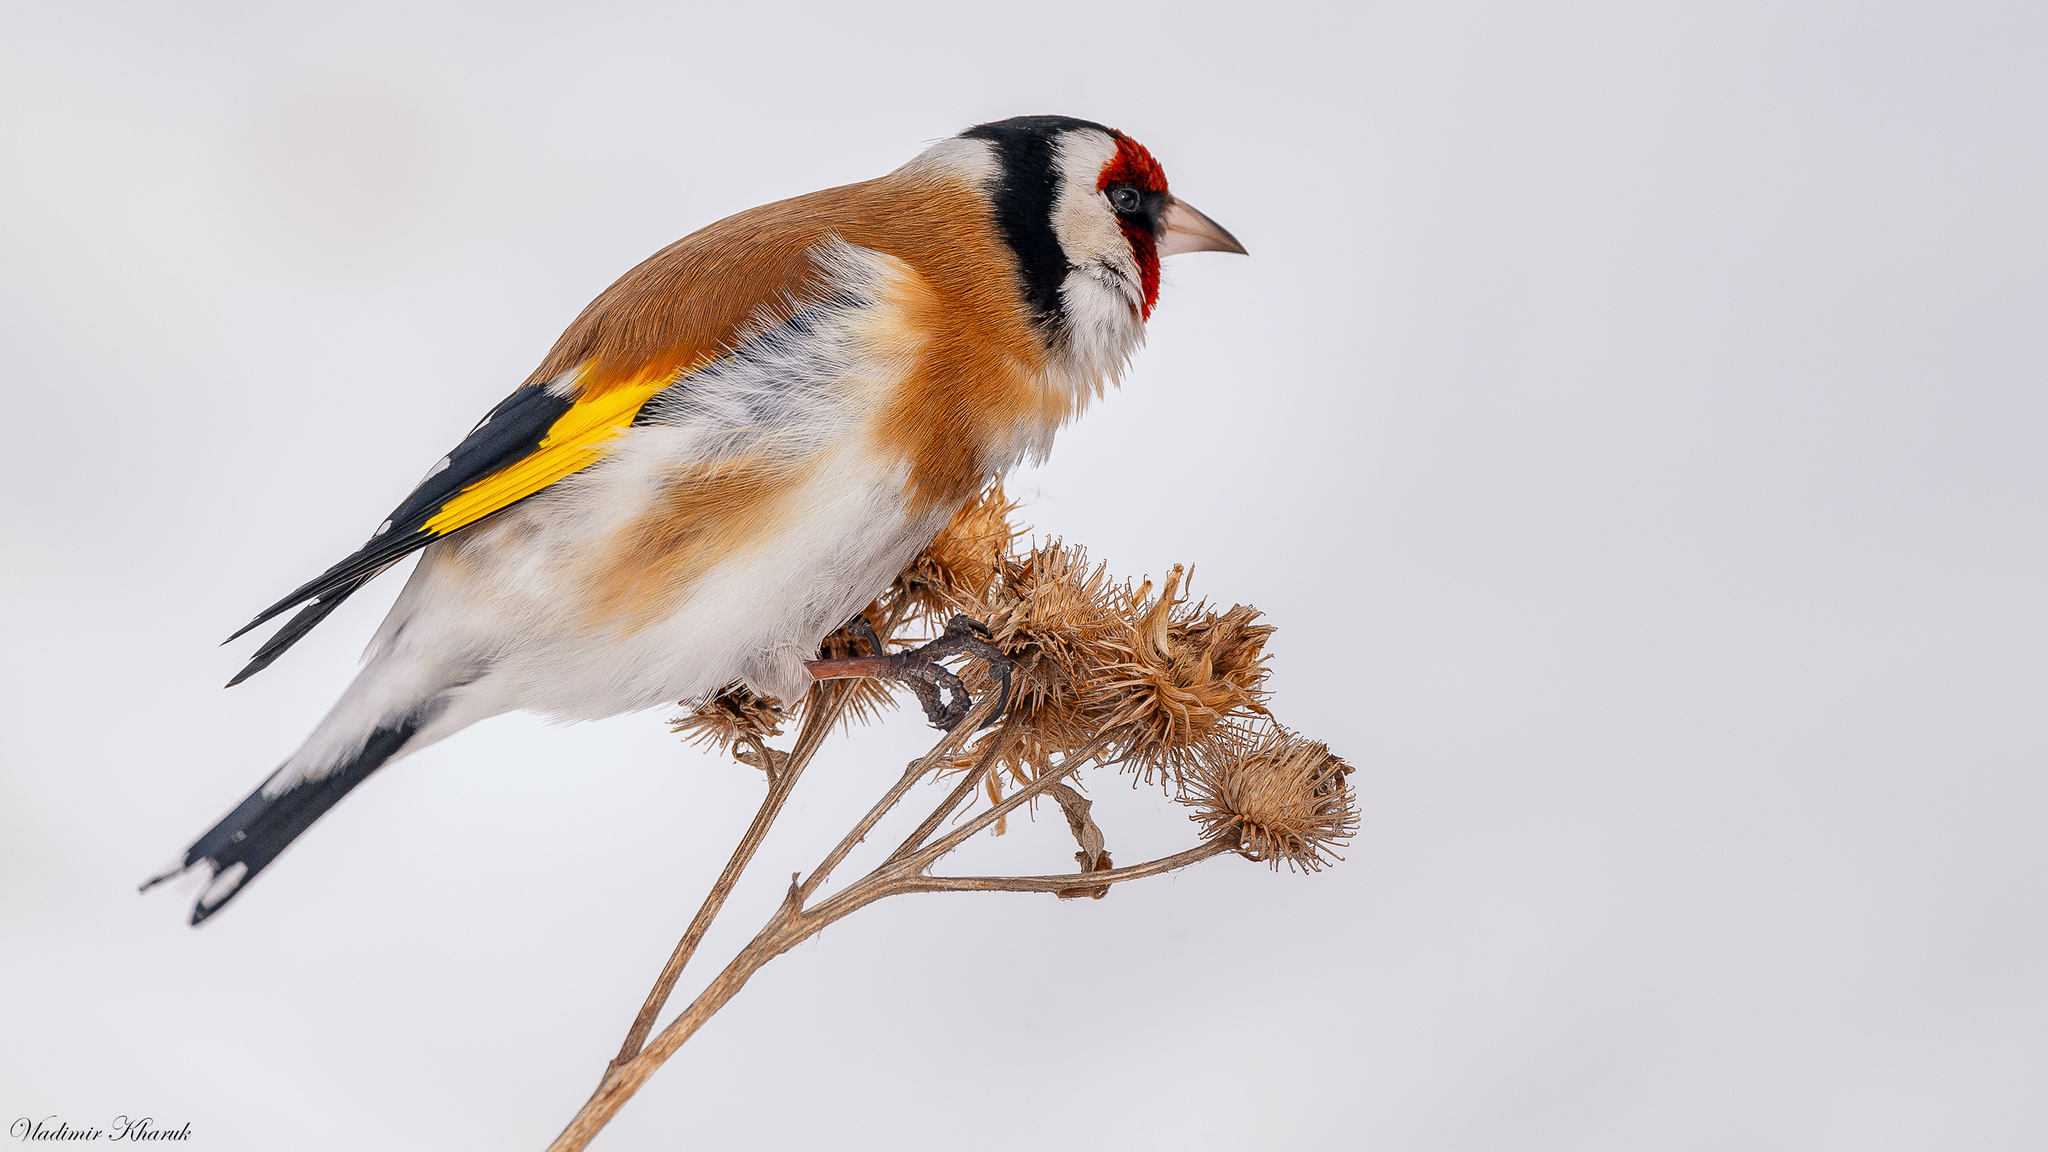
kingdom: Animalia
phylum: Chordata
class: Aves
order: Passeriformes
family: Fringillidae
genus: Carduelis
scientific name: Carduelis carduelis
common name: European goldfinch
